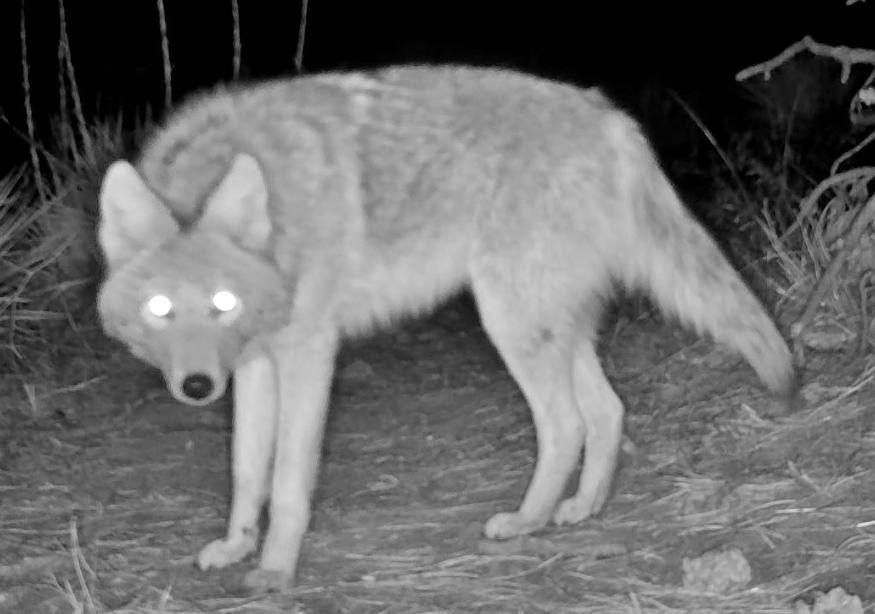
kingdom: Animalia
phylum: Chordata
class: Mammalia
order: Carnivora
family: Canidae
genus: Canis
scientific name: Canis latrans
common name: Coyote
